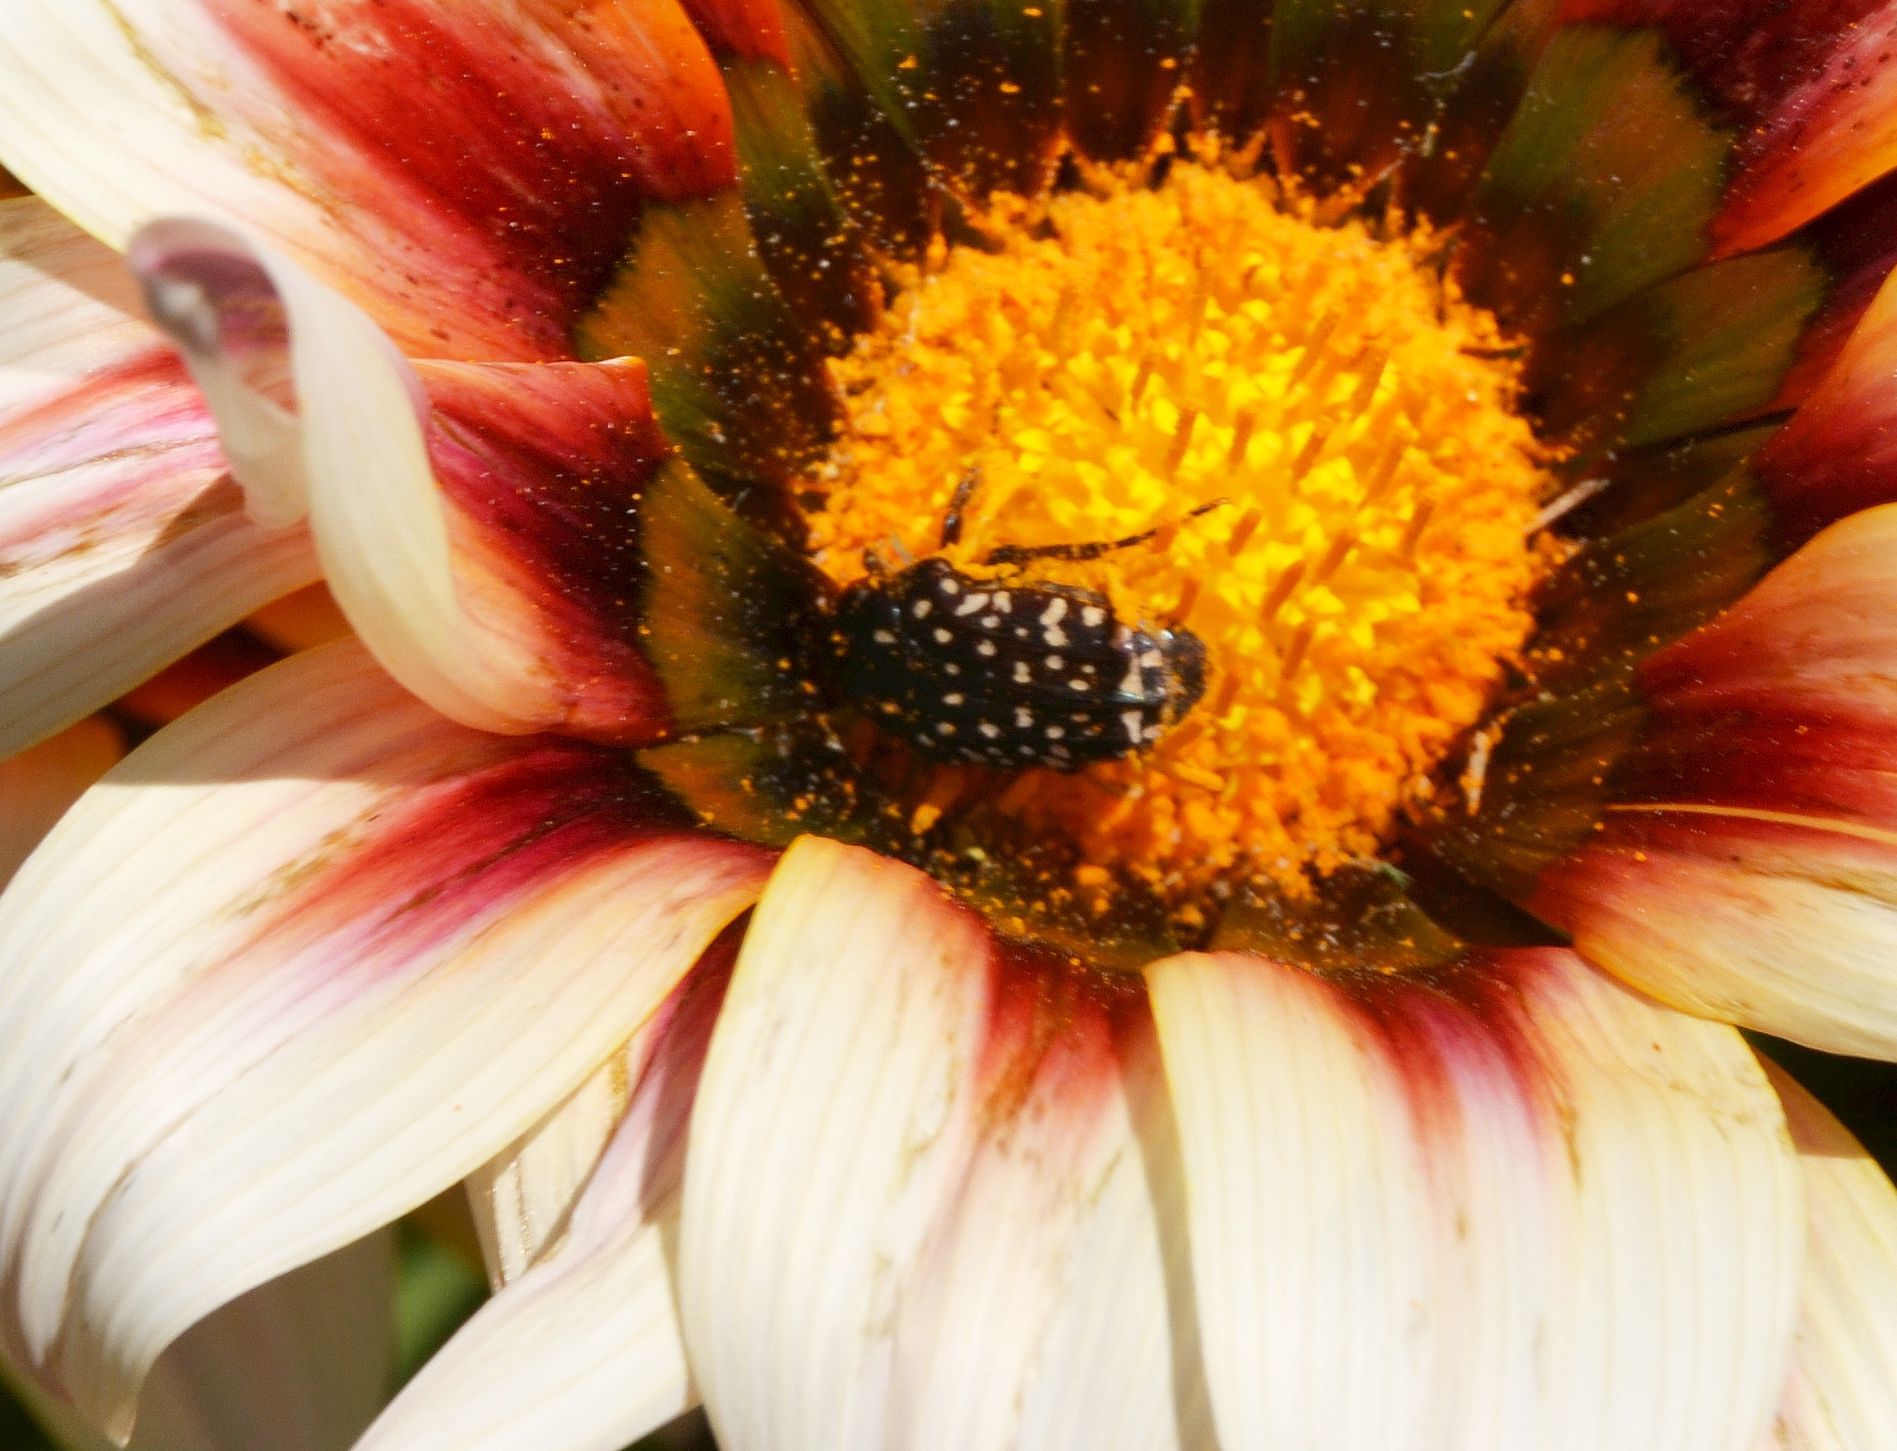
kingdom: Animalia
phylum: Arthropoda
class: Insecta
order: Coleoptera
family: Scarabaeidae
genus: Oxythyrea
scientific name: Oxythyrea
